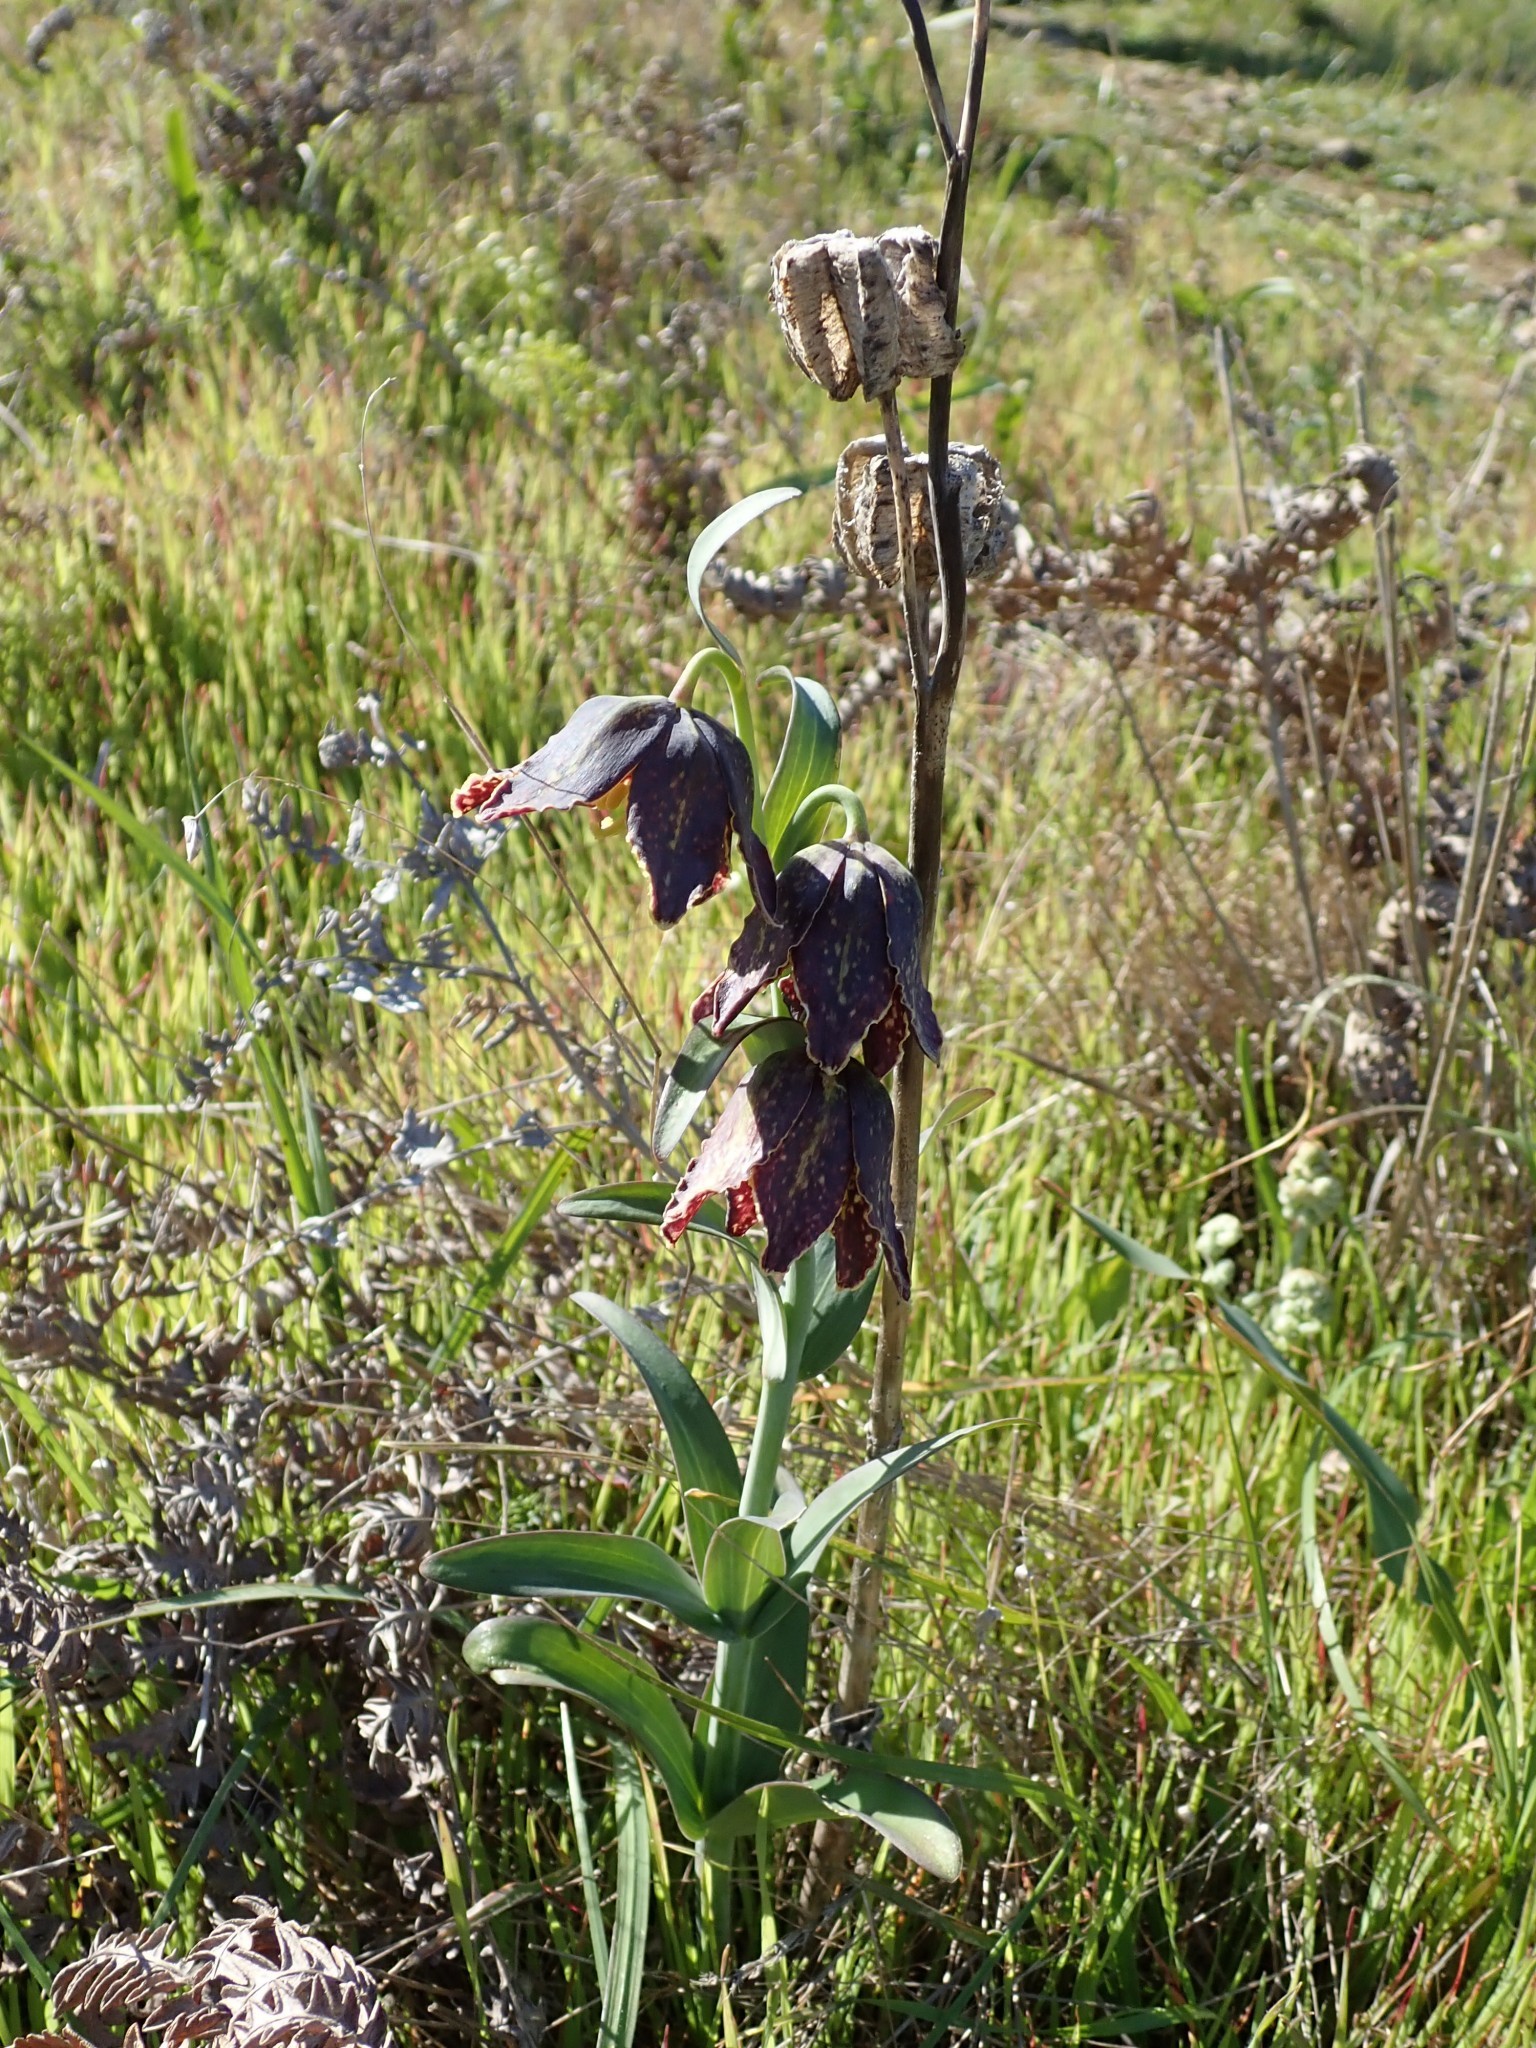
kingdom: Plantae
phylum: Tracheophyta
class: Liliopsida
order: Liliales
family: Liliaceae
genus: Fritillaria
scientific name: Fritillaria affinis
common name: Ojai fritillary
